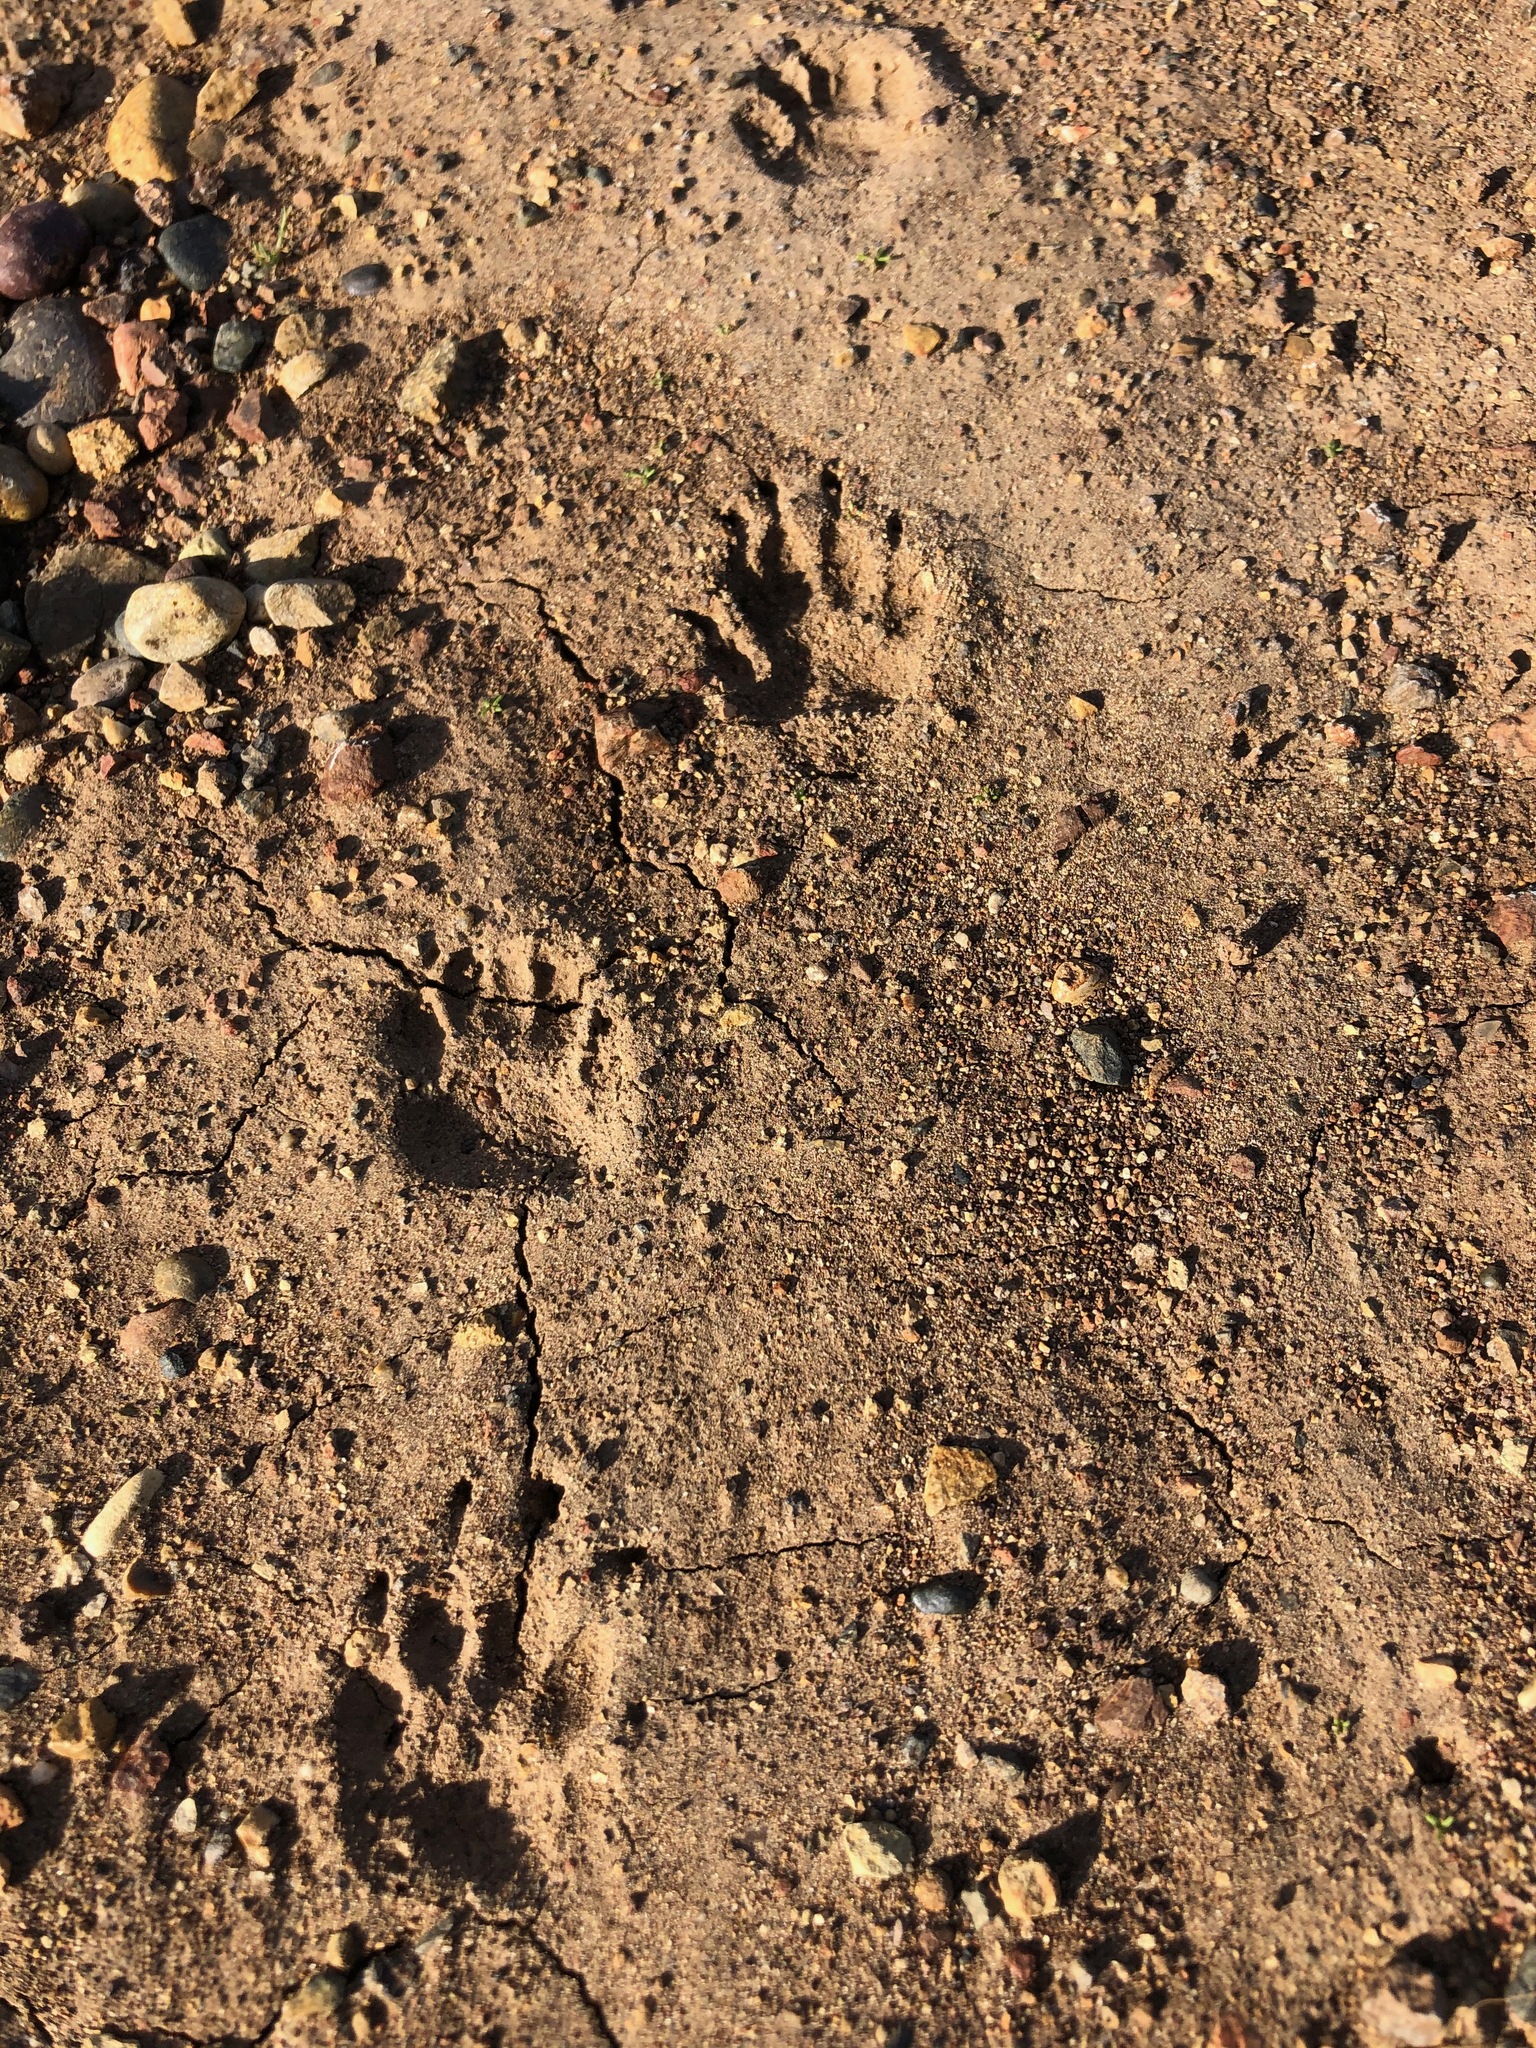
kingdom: Animalia
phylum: Chordata
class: Mammalia
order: Carnivora
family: Mephitidae
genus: Mephitis
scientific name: Mephitis mephitis
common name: Striped skunk
